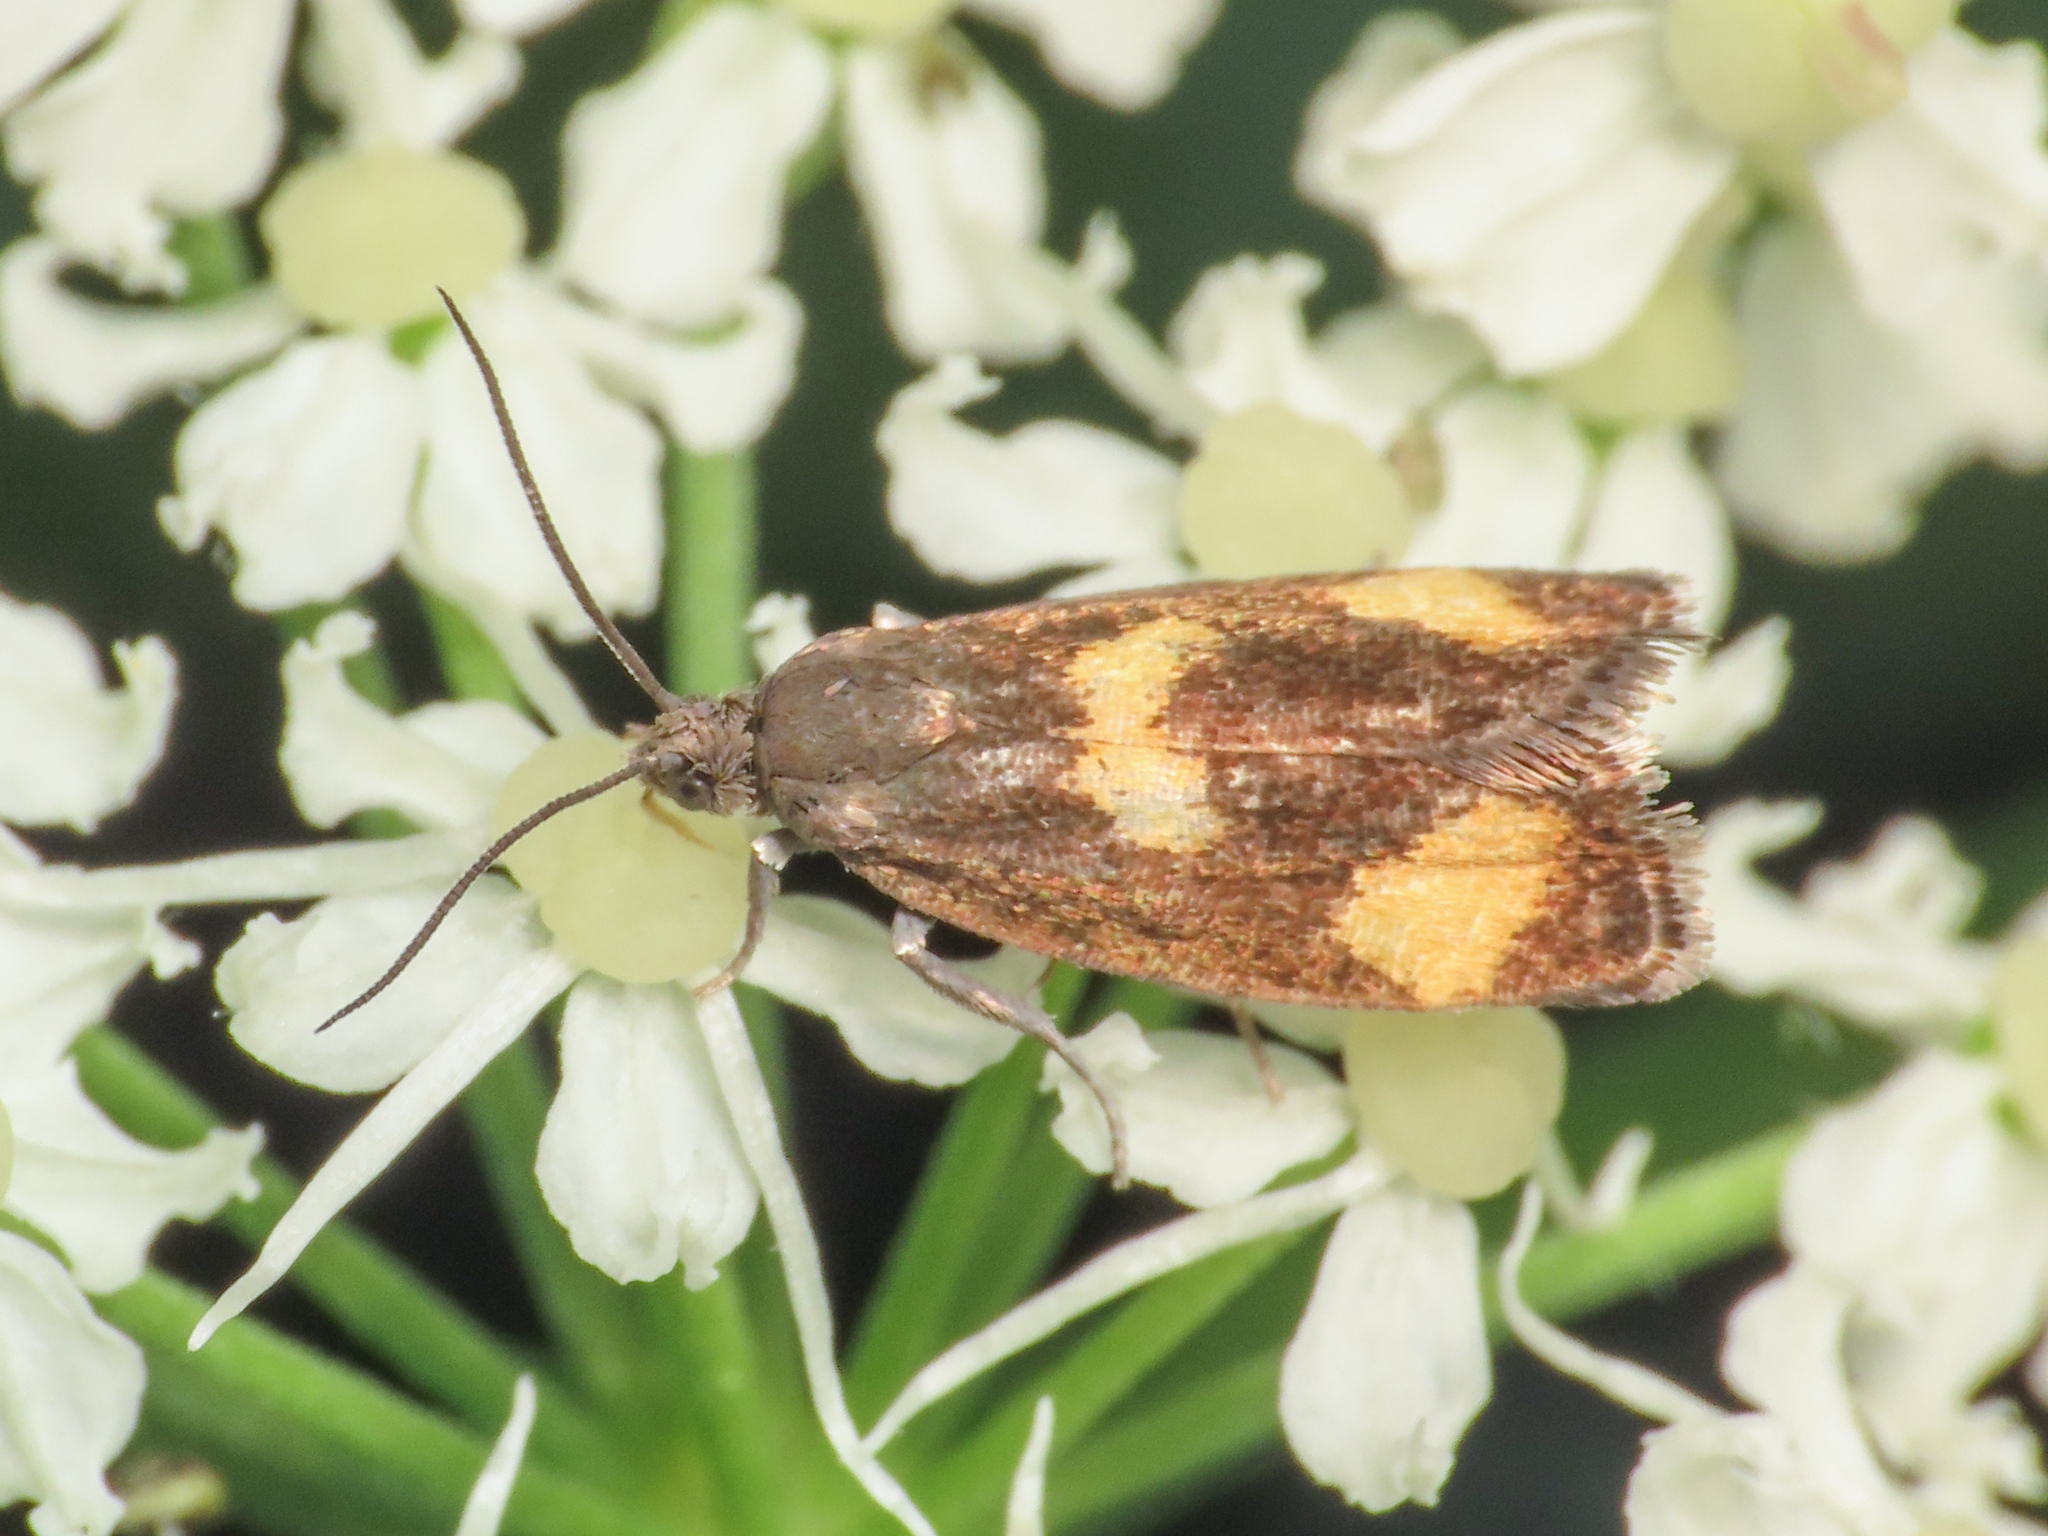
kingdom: Animalia
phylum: Arthropoda
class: Insecta
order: Lepidoptera
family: Tortricidae
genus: Pammene
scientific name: Pammene aurana
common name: Orange-spot piercer
